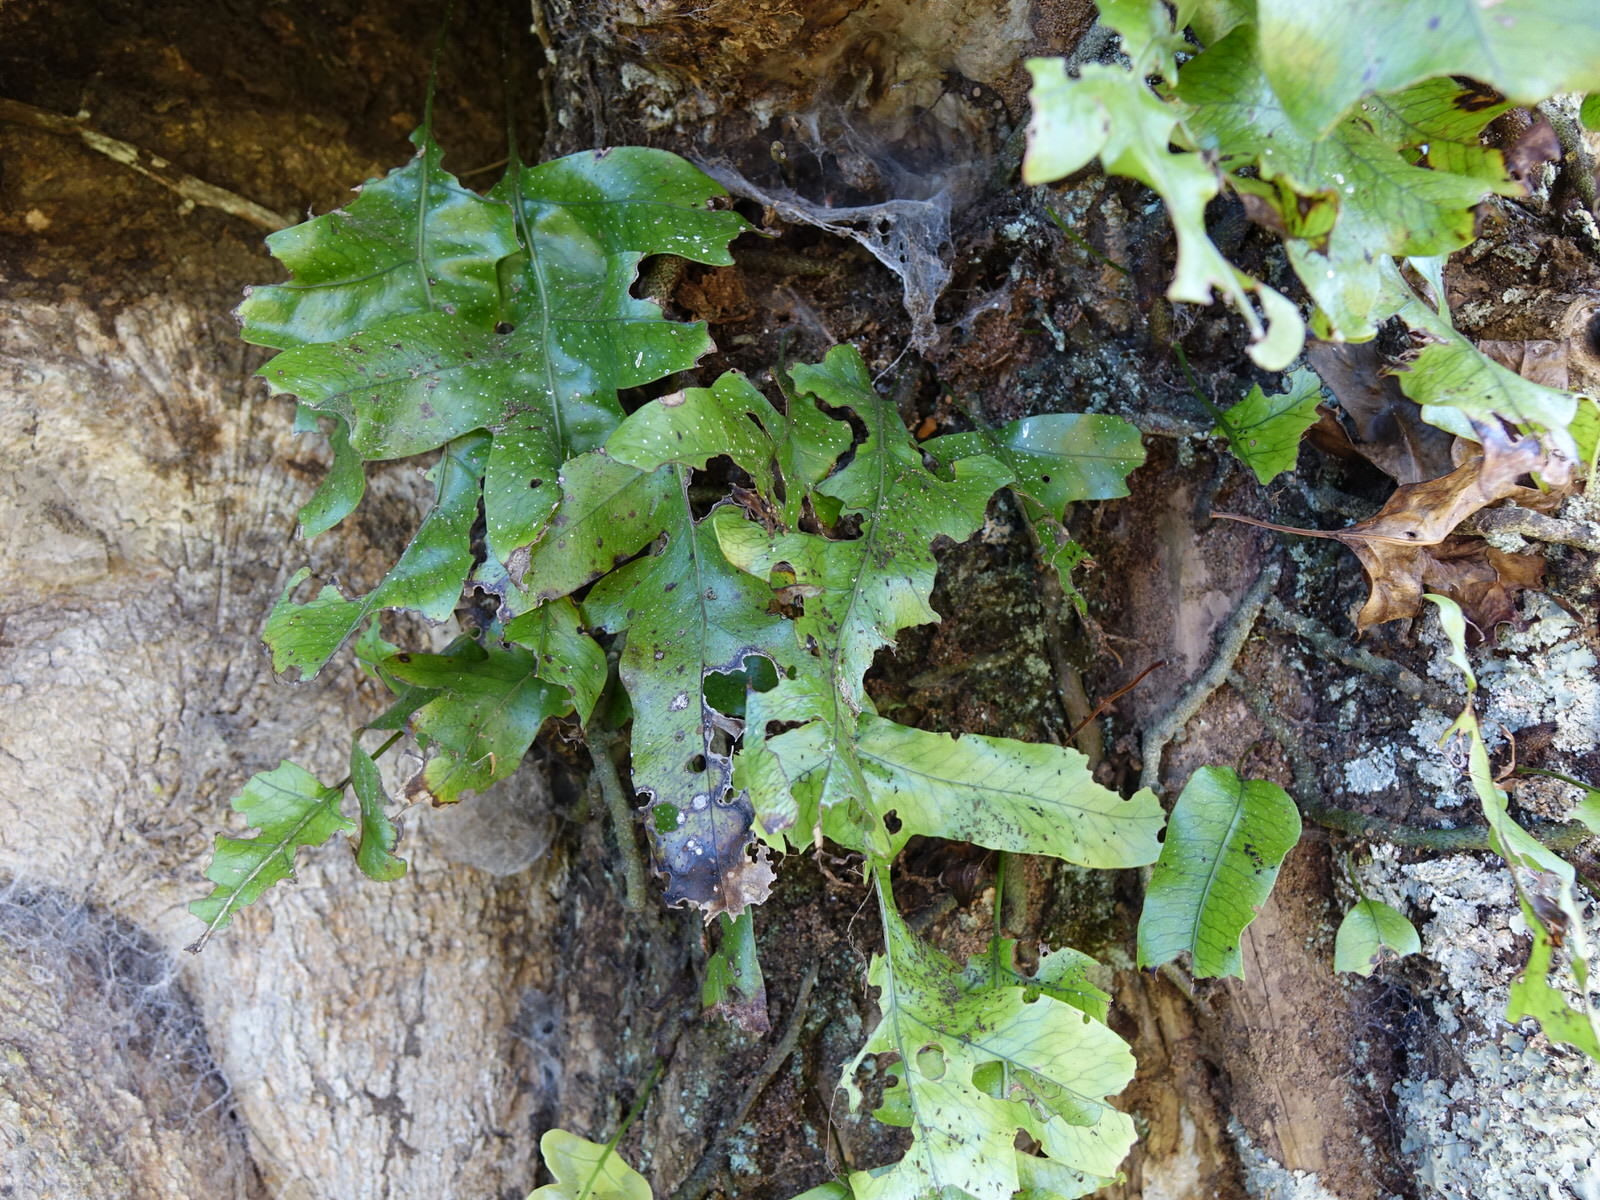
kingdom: Plantae
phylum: Tracheophyta
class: Polypodiopsida
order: Polypodiales
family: Polypodiaceae
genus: Lecanopteris
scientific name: Lecanopteris pustulata
